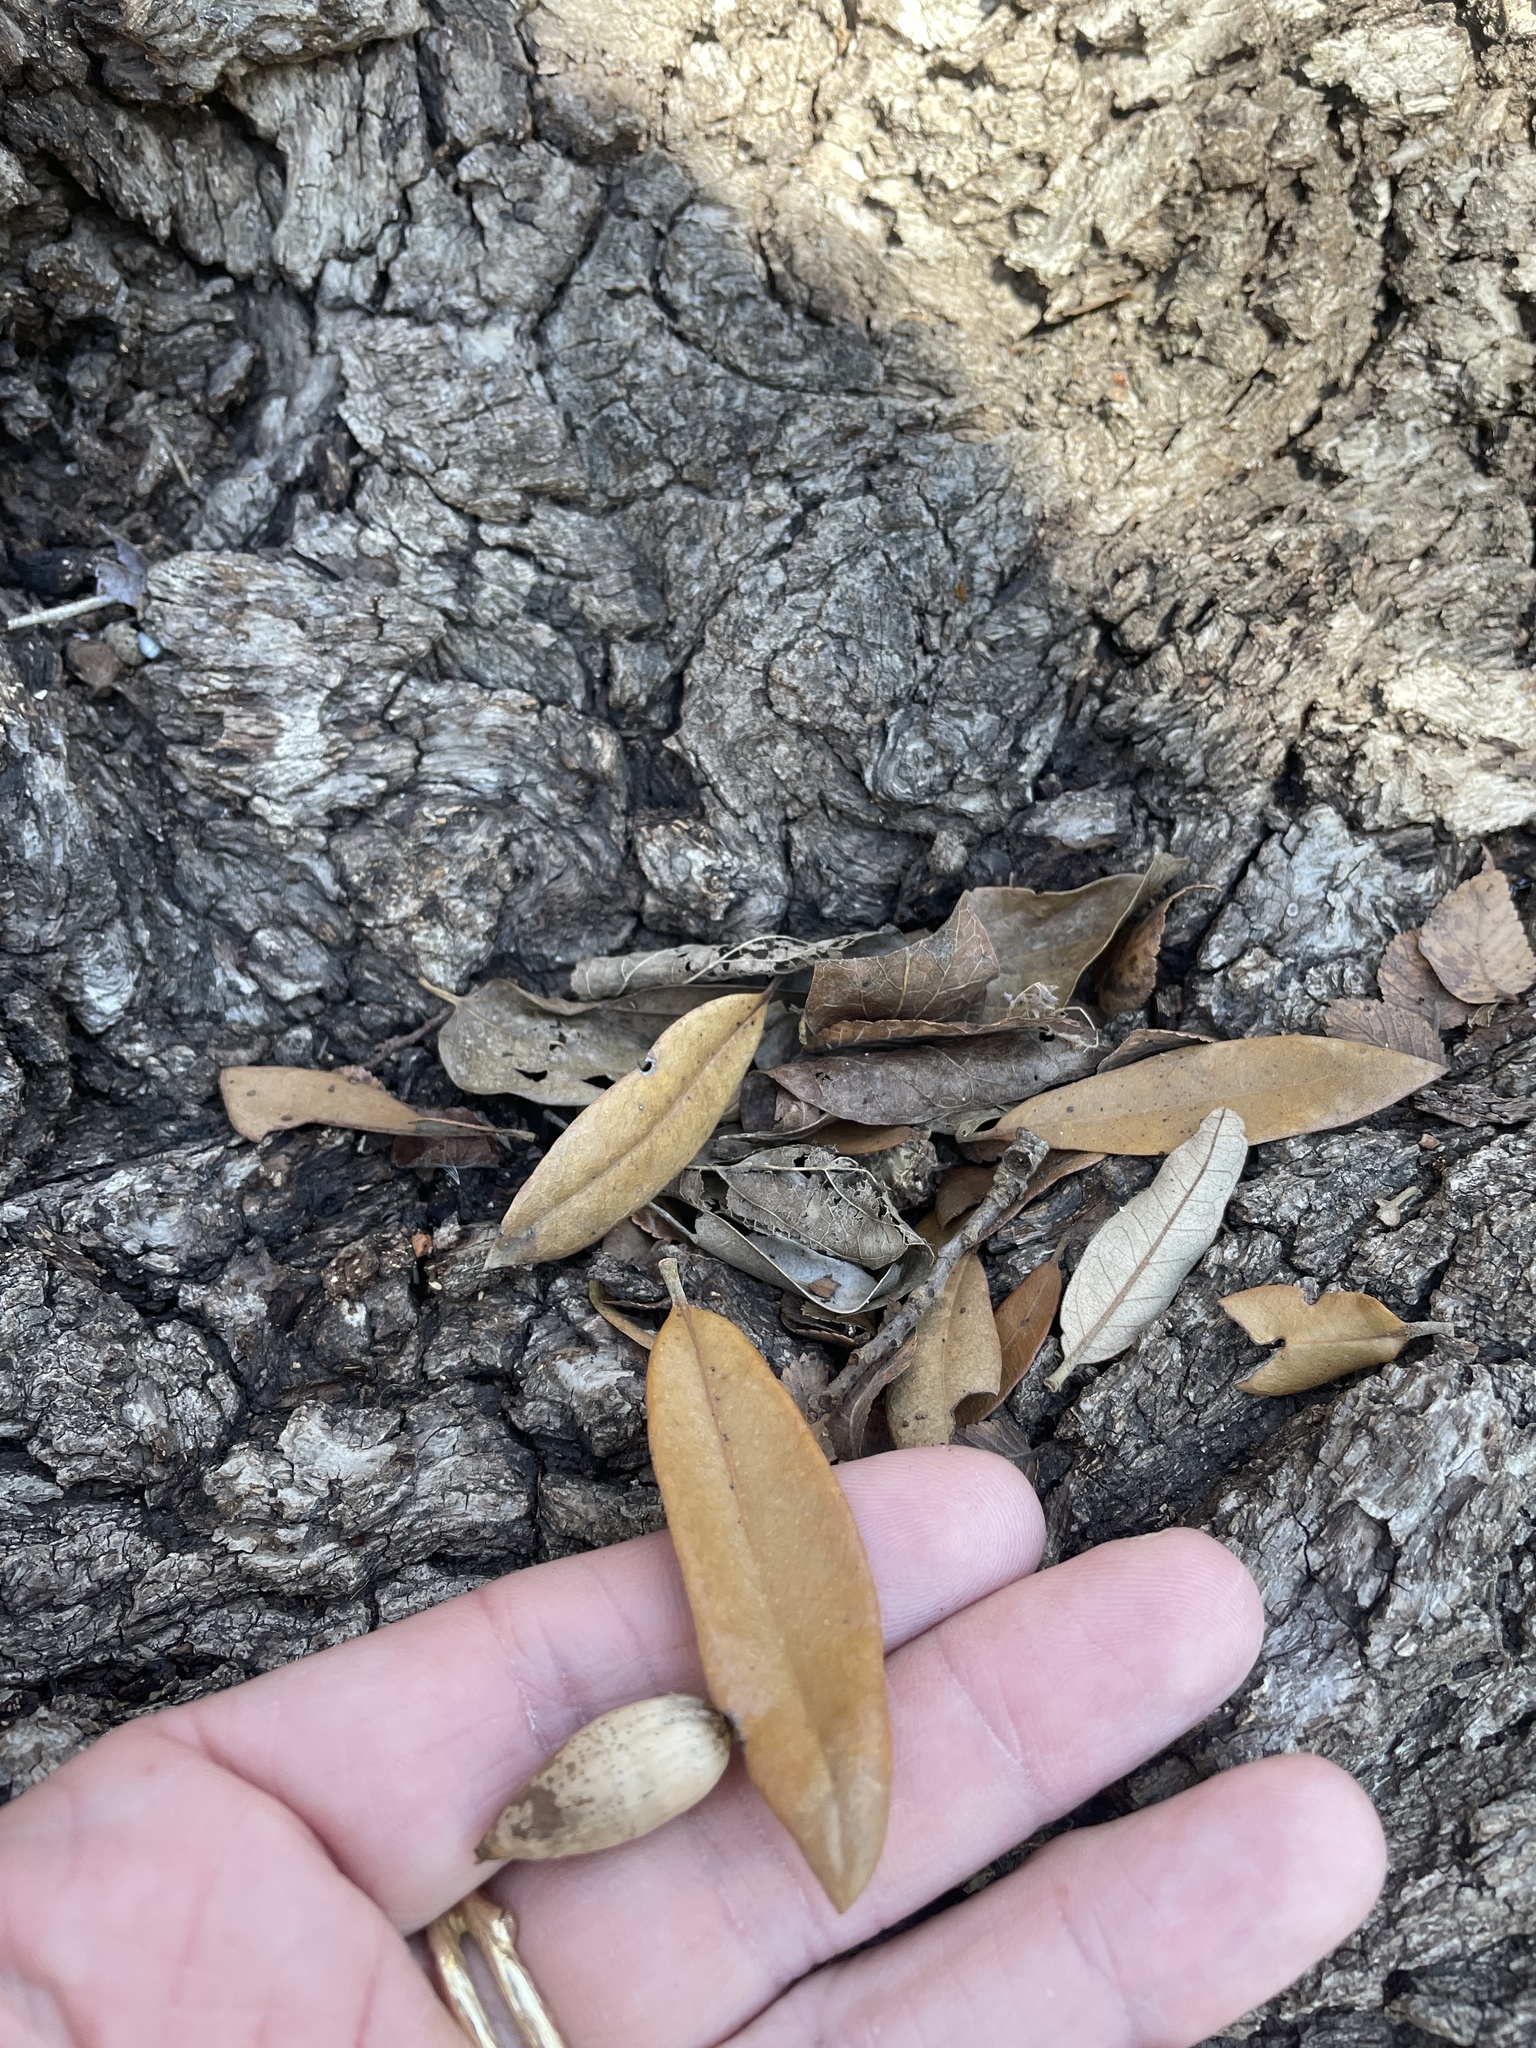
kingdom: Plantae
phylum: Tracheophyta
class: Magnoliopsida
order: Fagales
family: Fagaceae
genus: Quercus
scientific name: Quercus fusiformis
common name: Texas live oak
